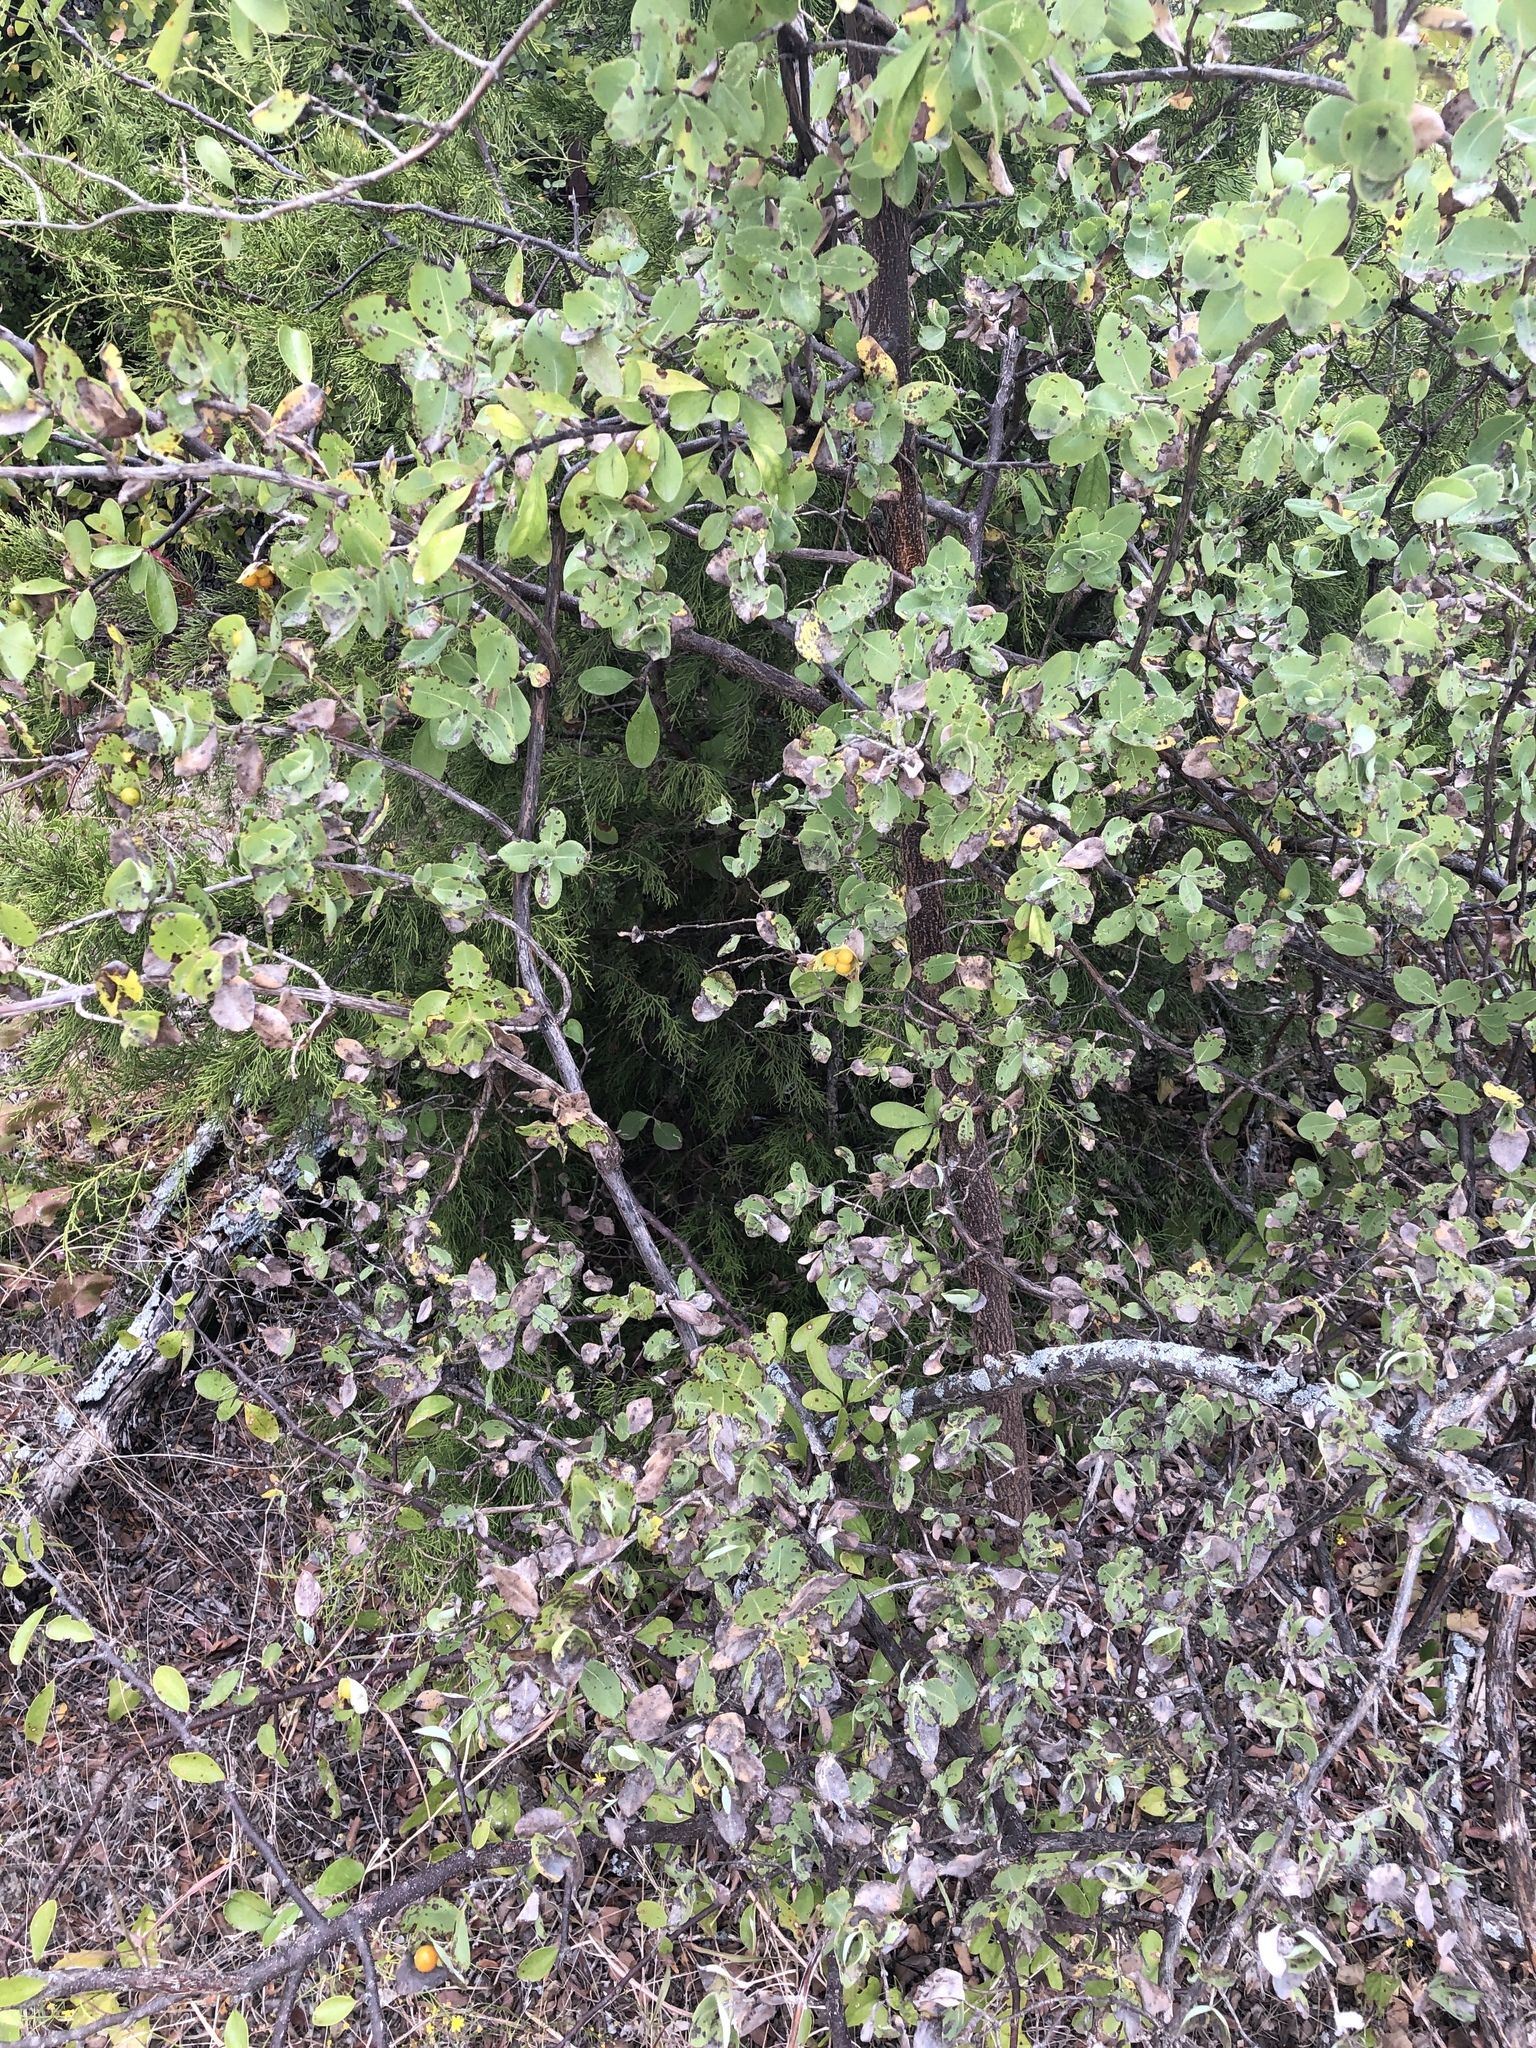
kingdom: Plantae
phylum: Tracheophyta
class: Magnoliopsida
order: Dipsacales
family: Caprifoliaceae
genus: Lonicera
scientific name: Lonicera albiflora
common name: White honeysuckle
